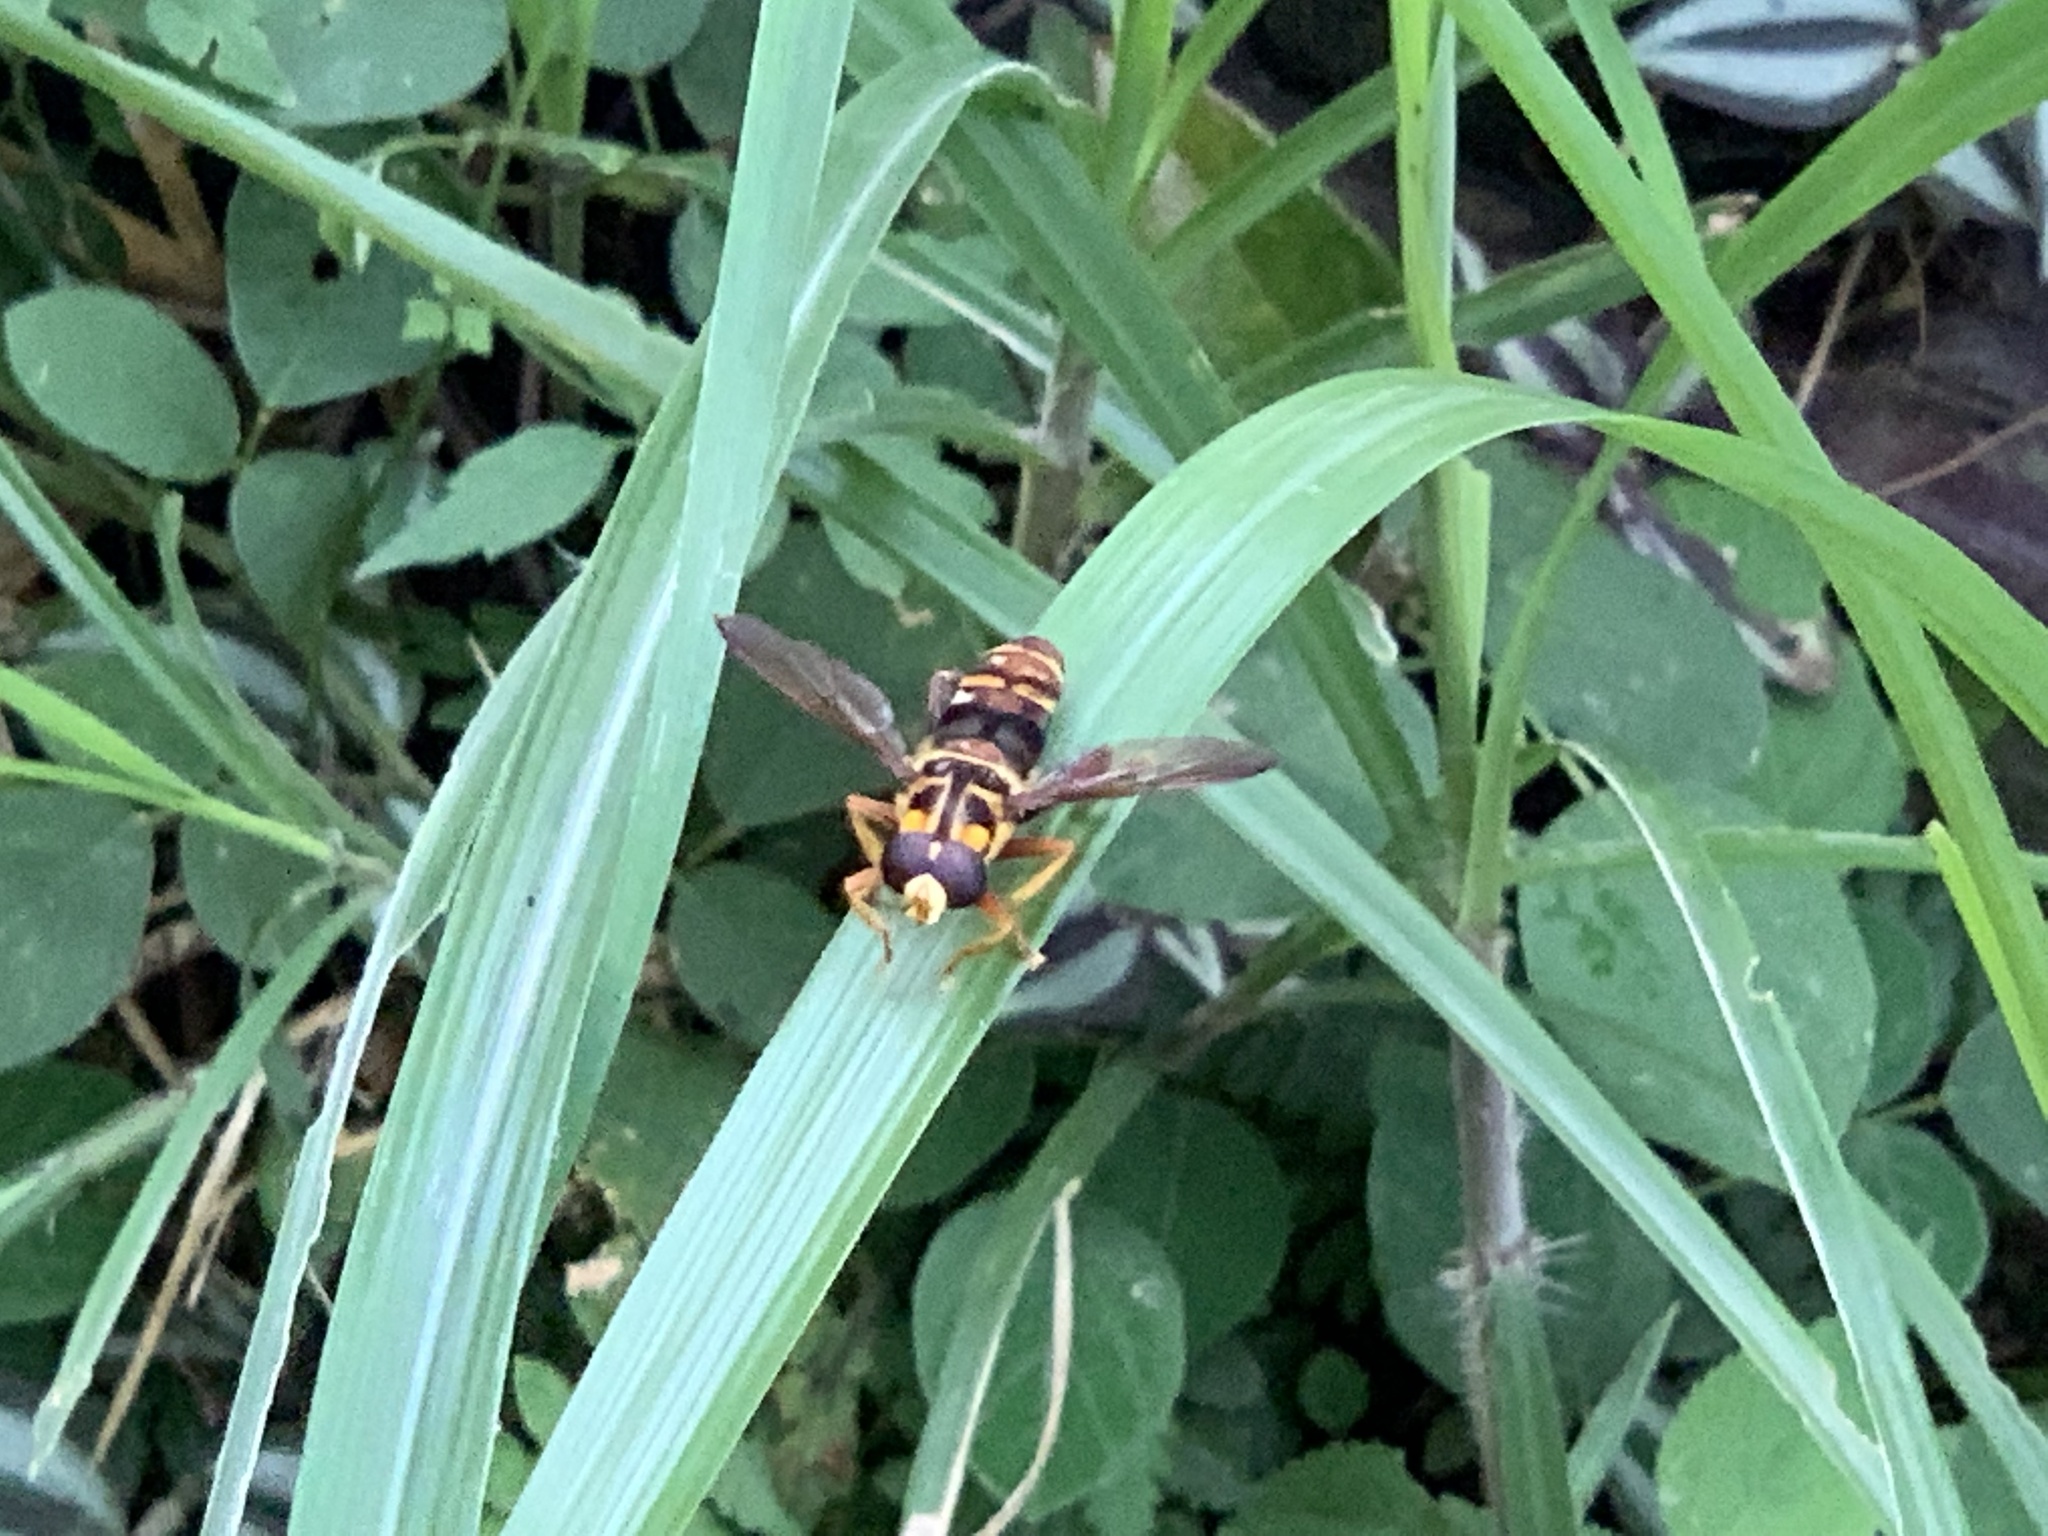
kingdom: Animalia
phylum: Arthropoda
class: Insecta
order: Diptera
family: Syrphidae
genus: Milesia
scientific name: Milesia fissipennis
